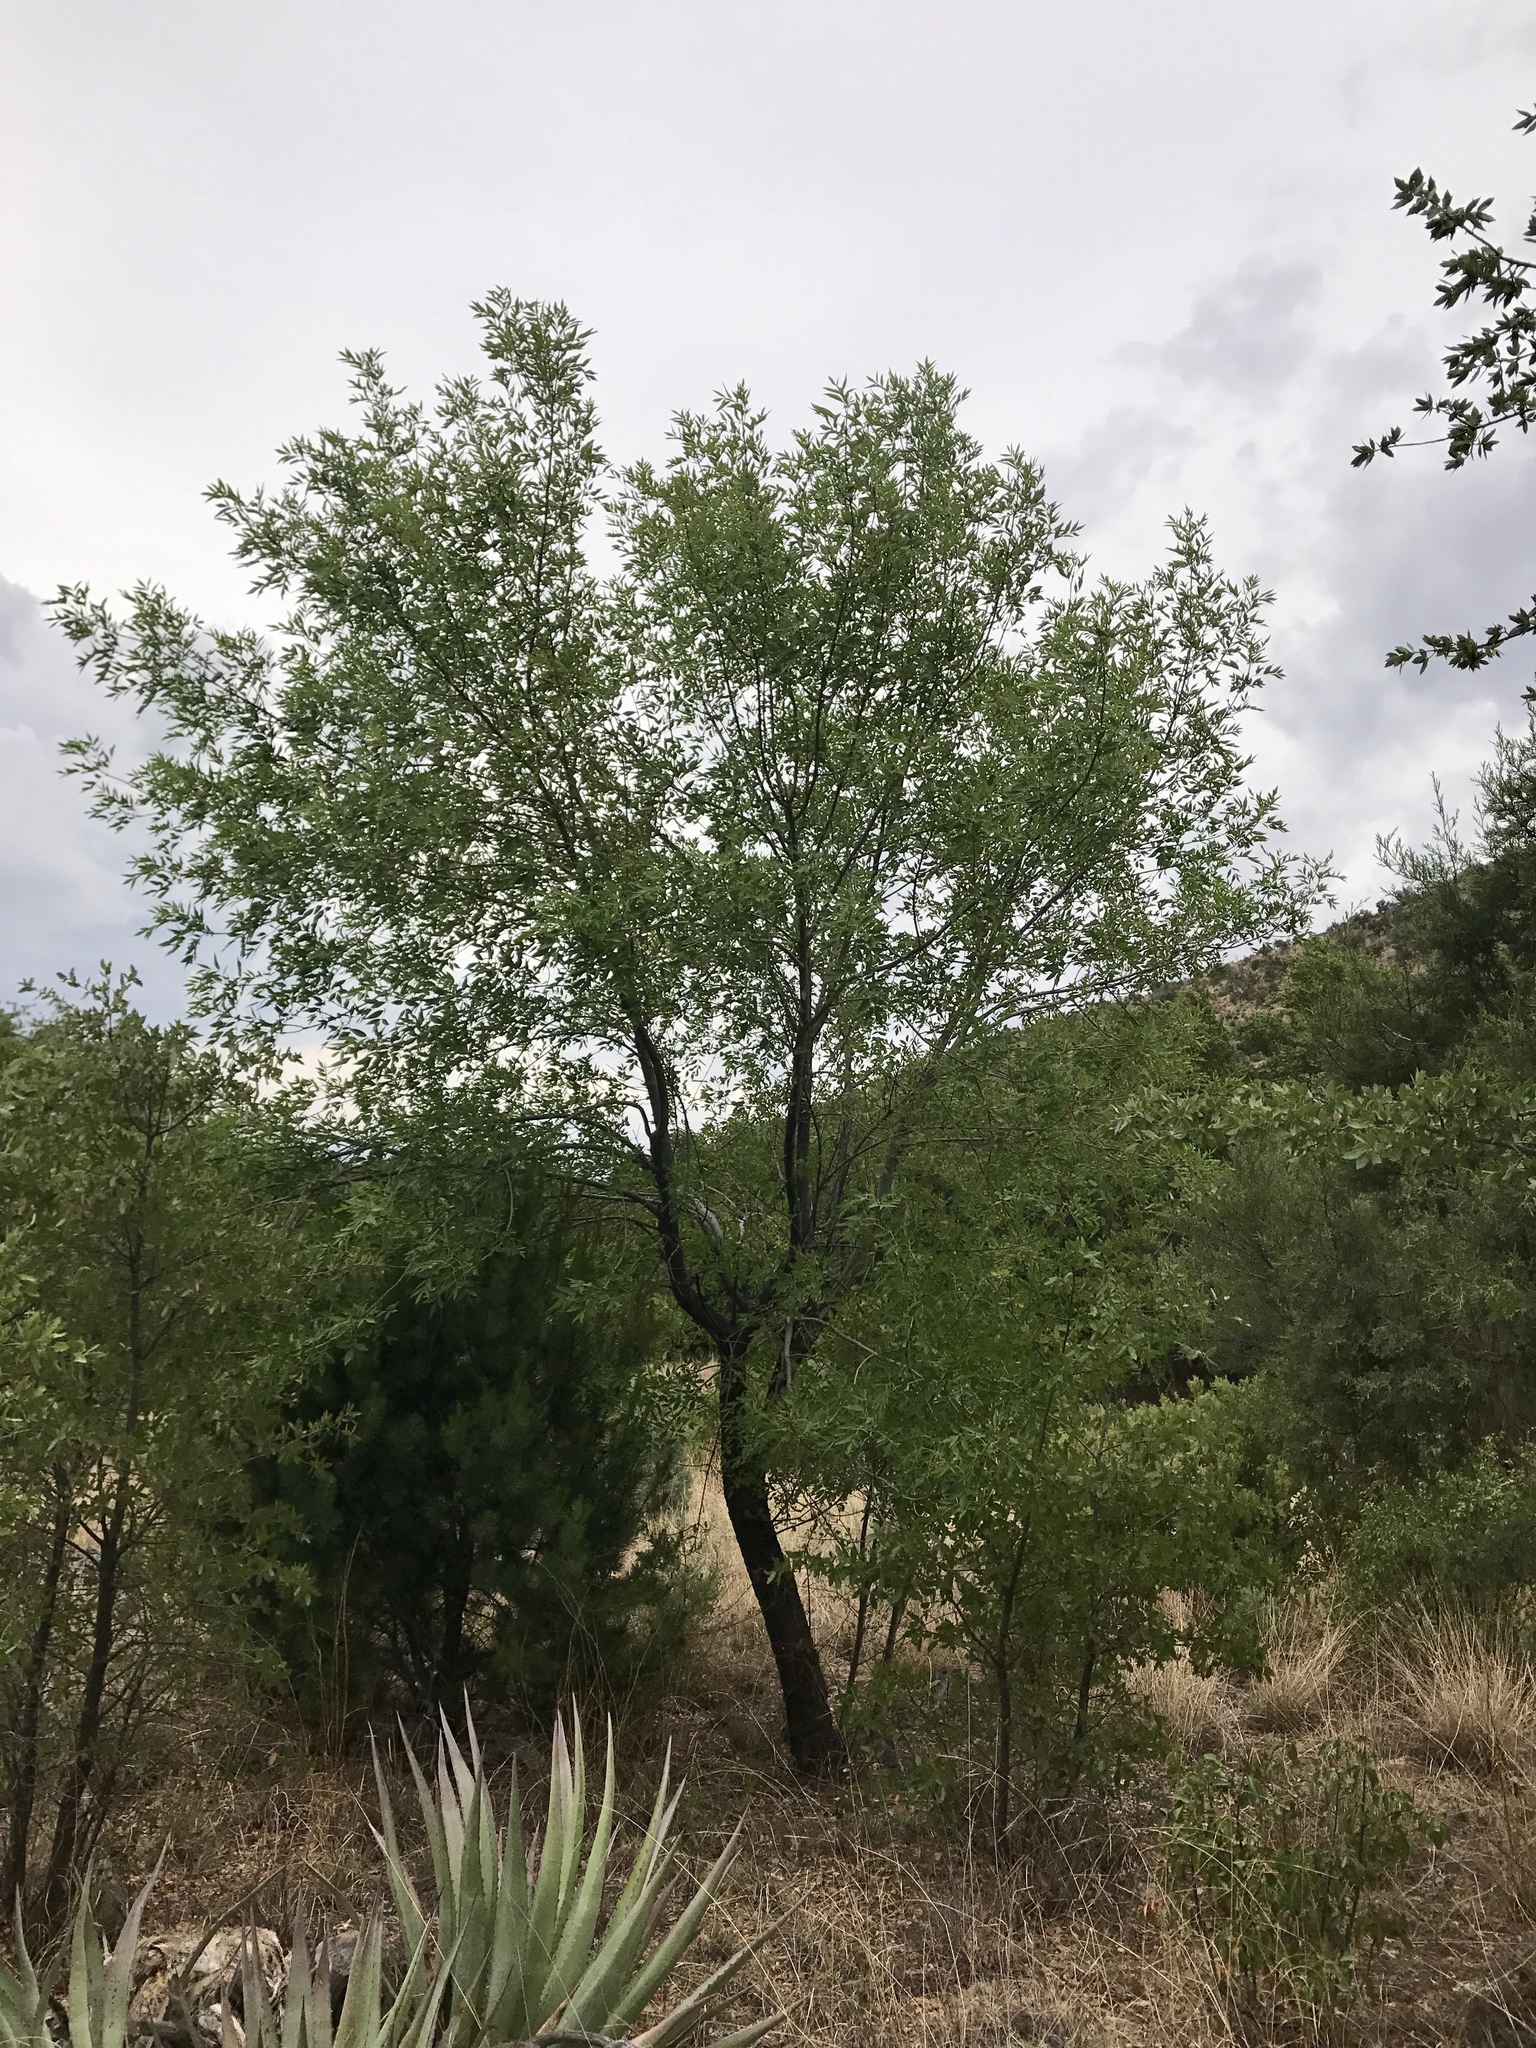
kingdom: Plantae
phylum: Tracheophyta
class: Magnoliopsida
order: Lamiales
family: Oleaceae
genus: Fraxinus
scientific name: Fraxinus velutina
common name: Arizon ash
